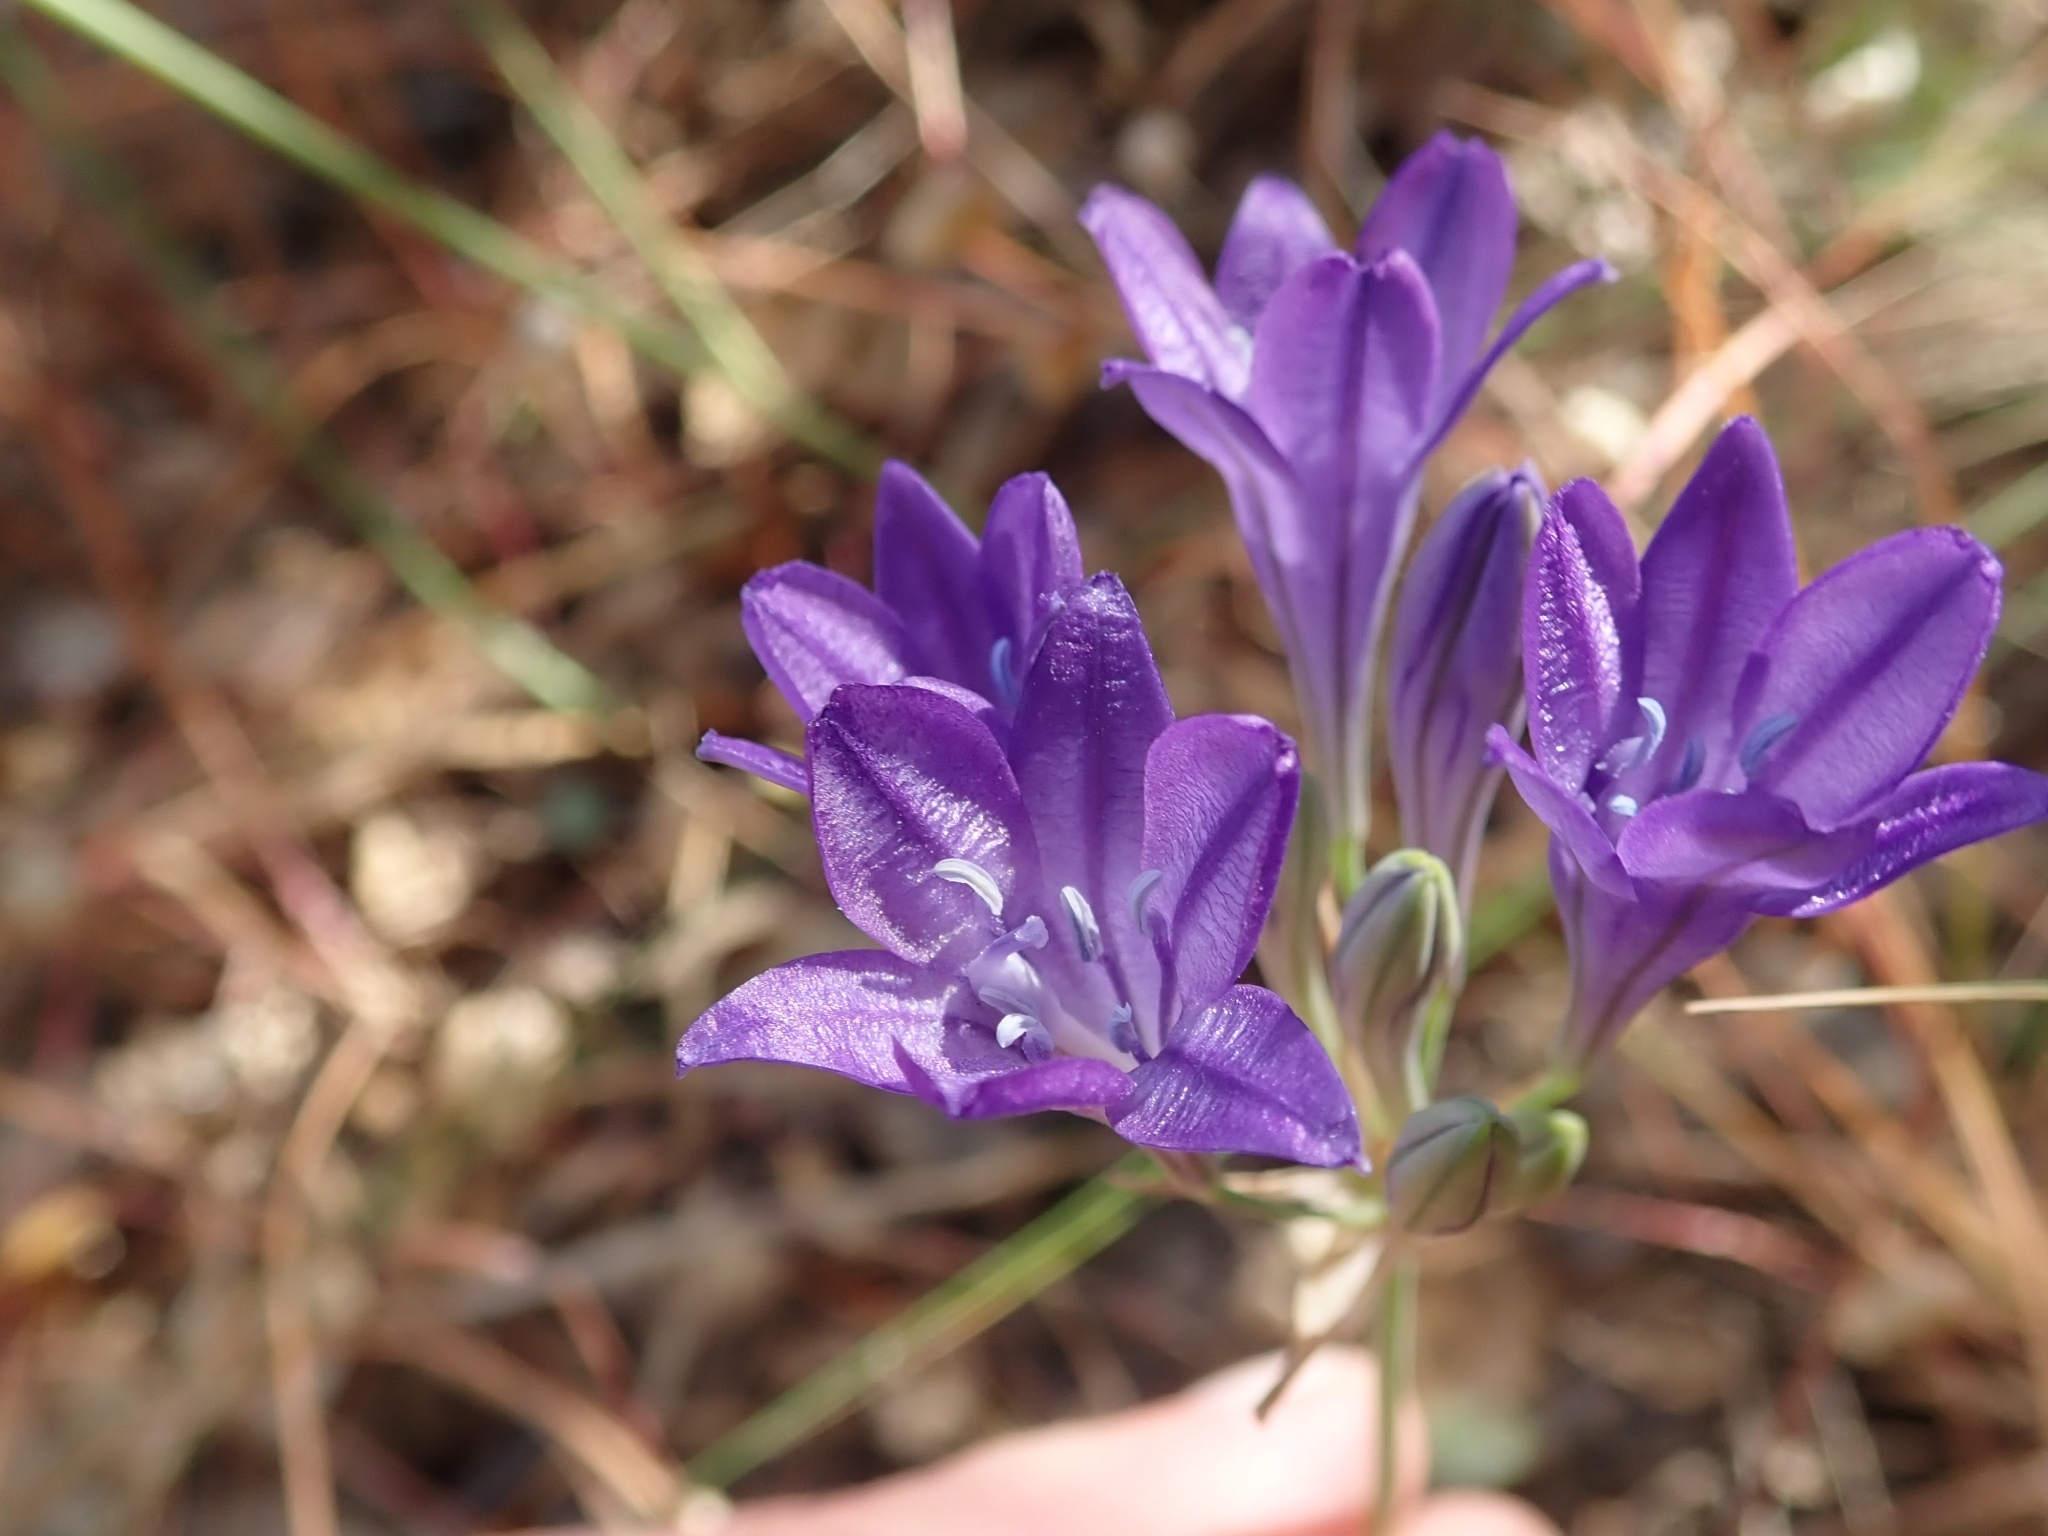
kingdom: Plantae
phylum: Tracheophyta
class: Liliopsida
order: Asparagales
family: Asparagaceae
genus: Triteleia
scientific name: Triteleia laxa
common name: Triplet-lily
